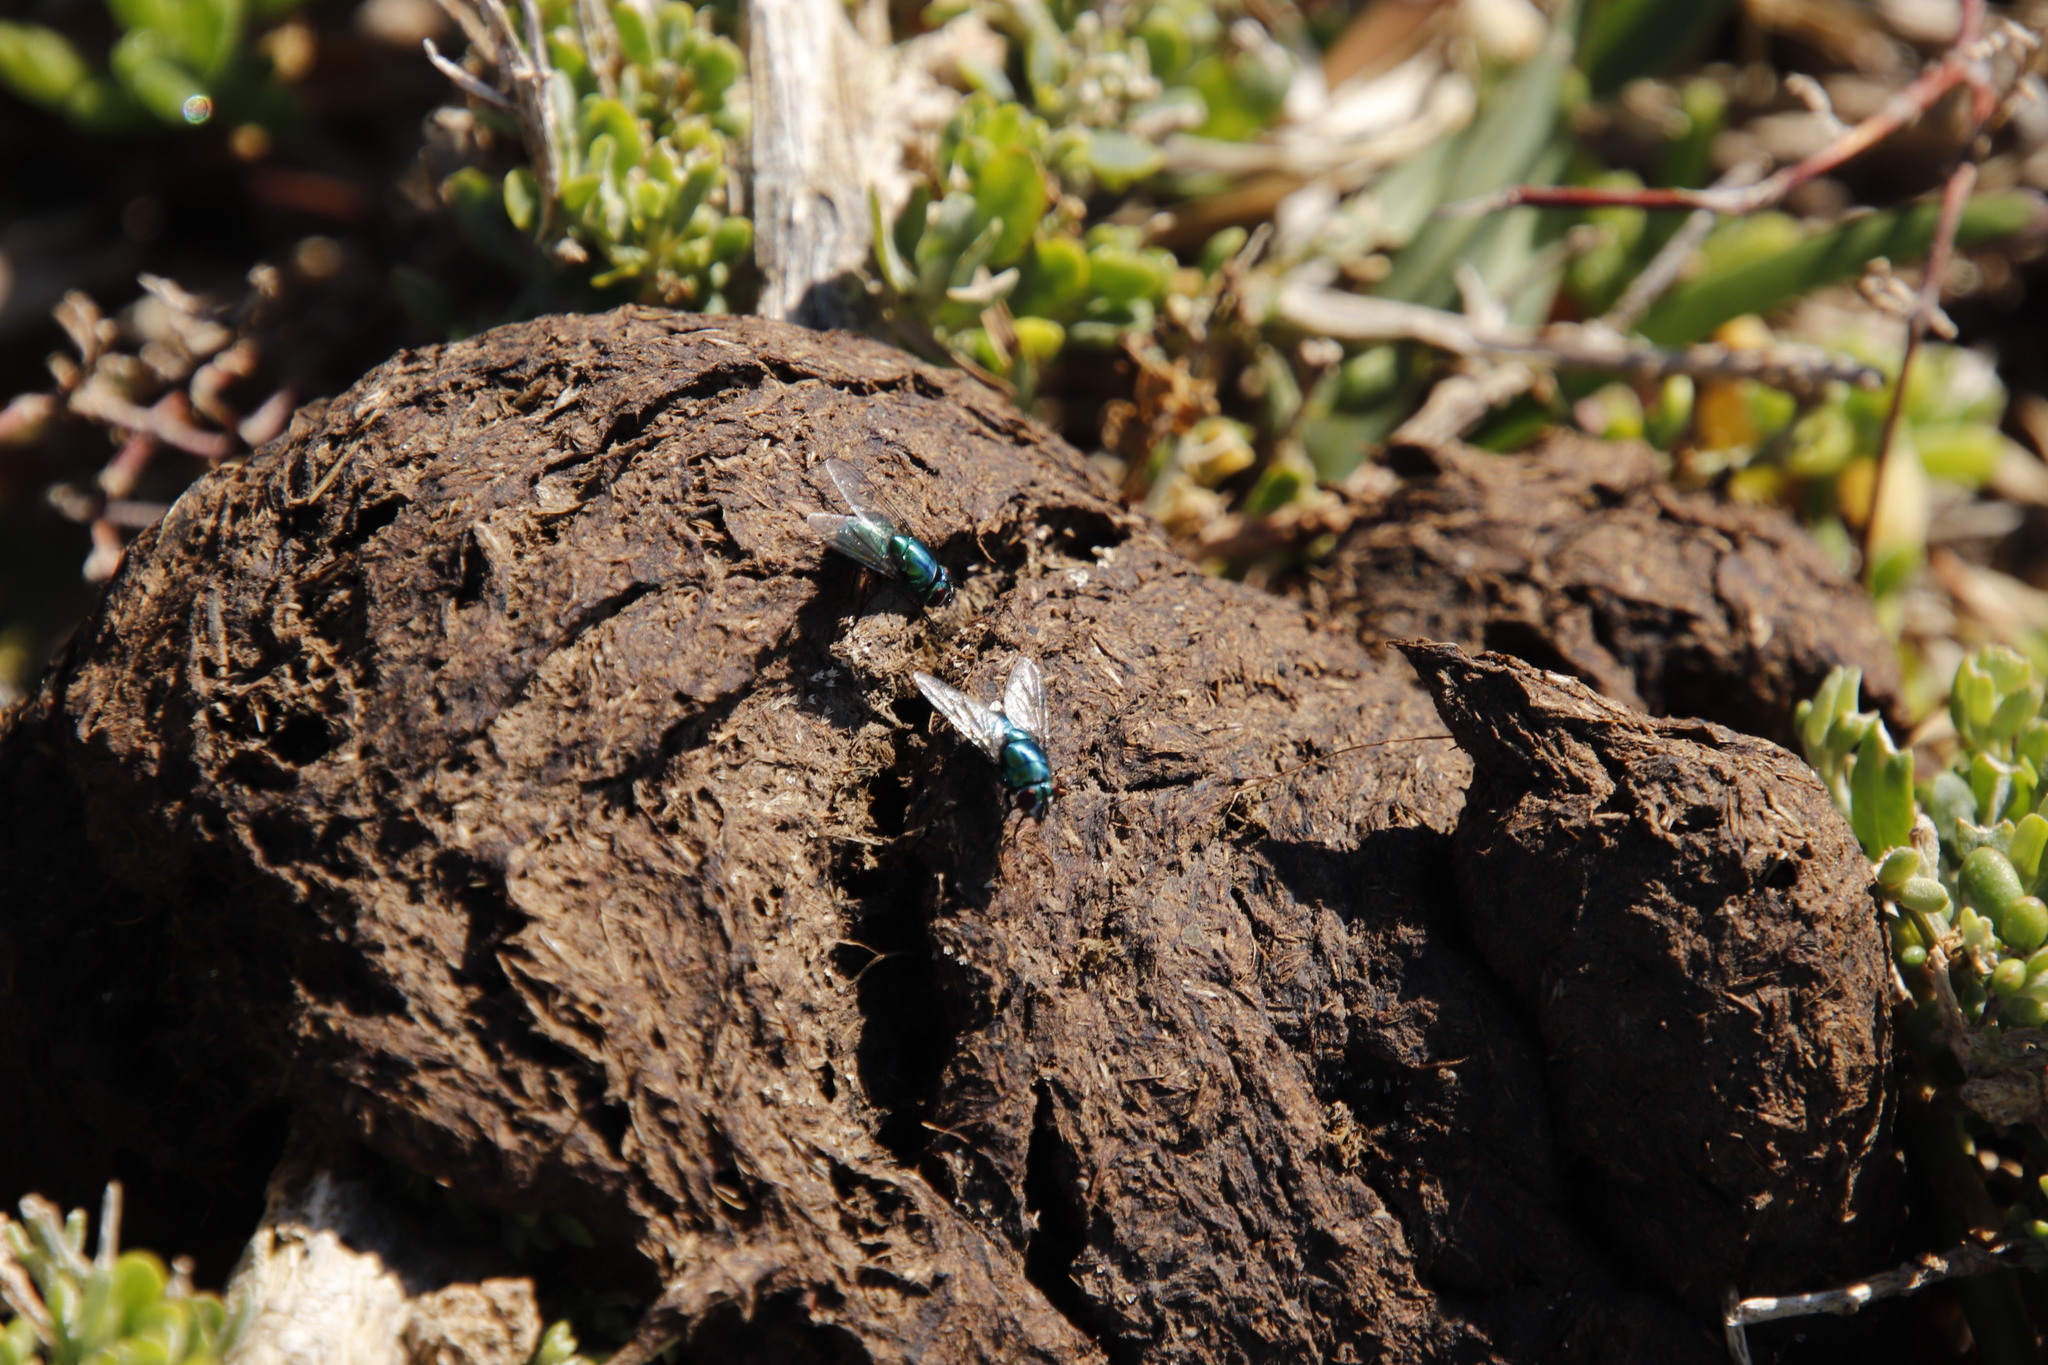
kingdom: Animalia
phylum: Chordata
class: Aves
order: Struthioniformes
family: Struthionidae
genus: Struthio
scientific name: Struthio camelus
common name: Common ostrich
